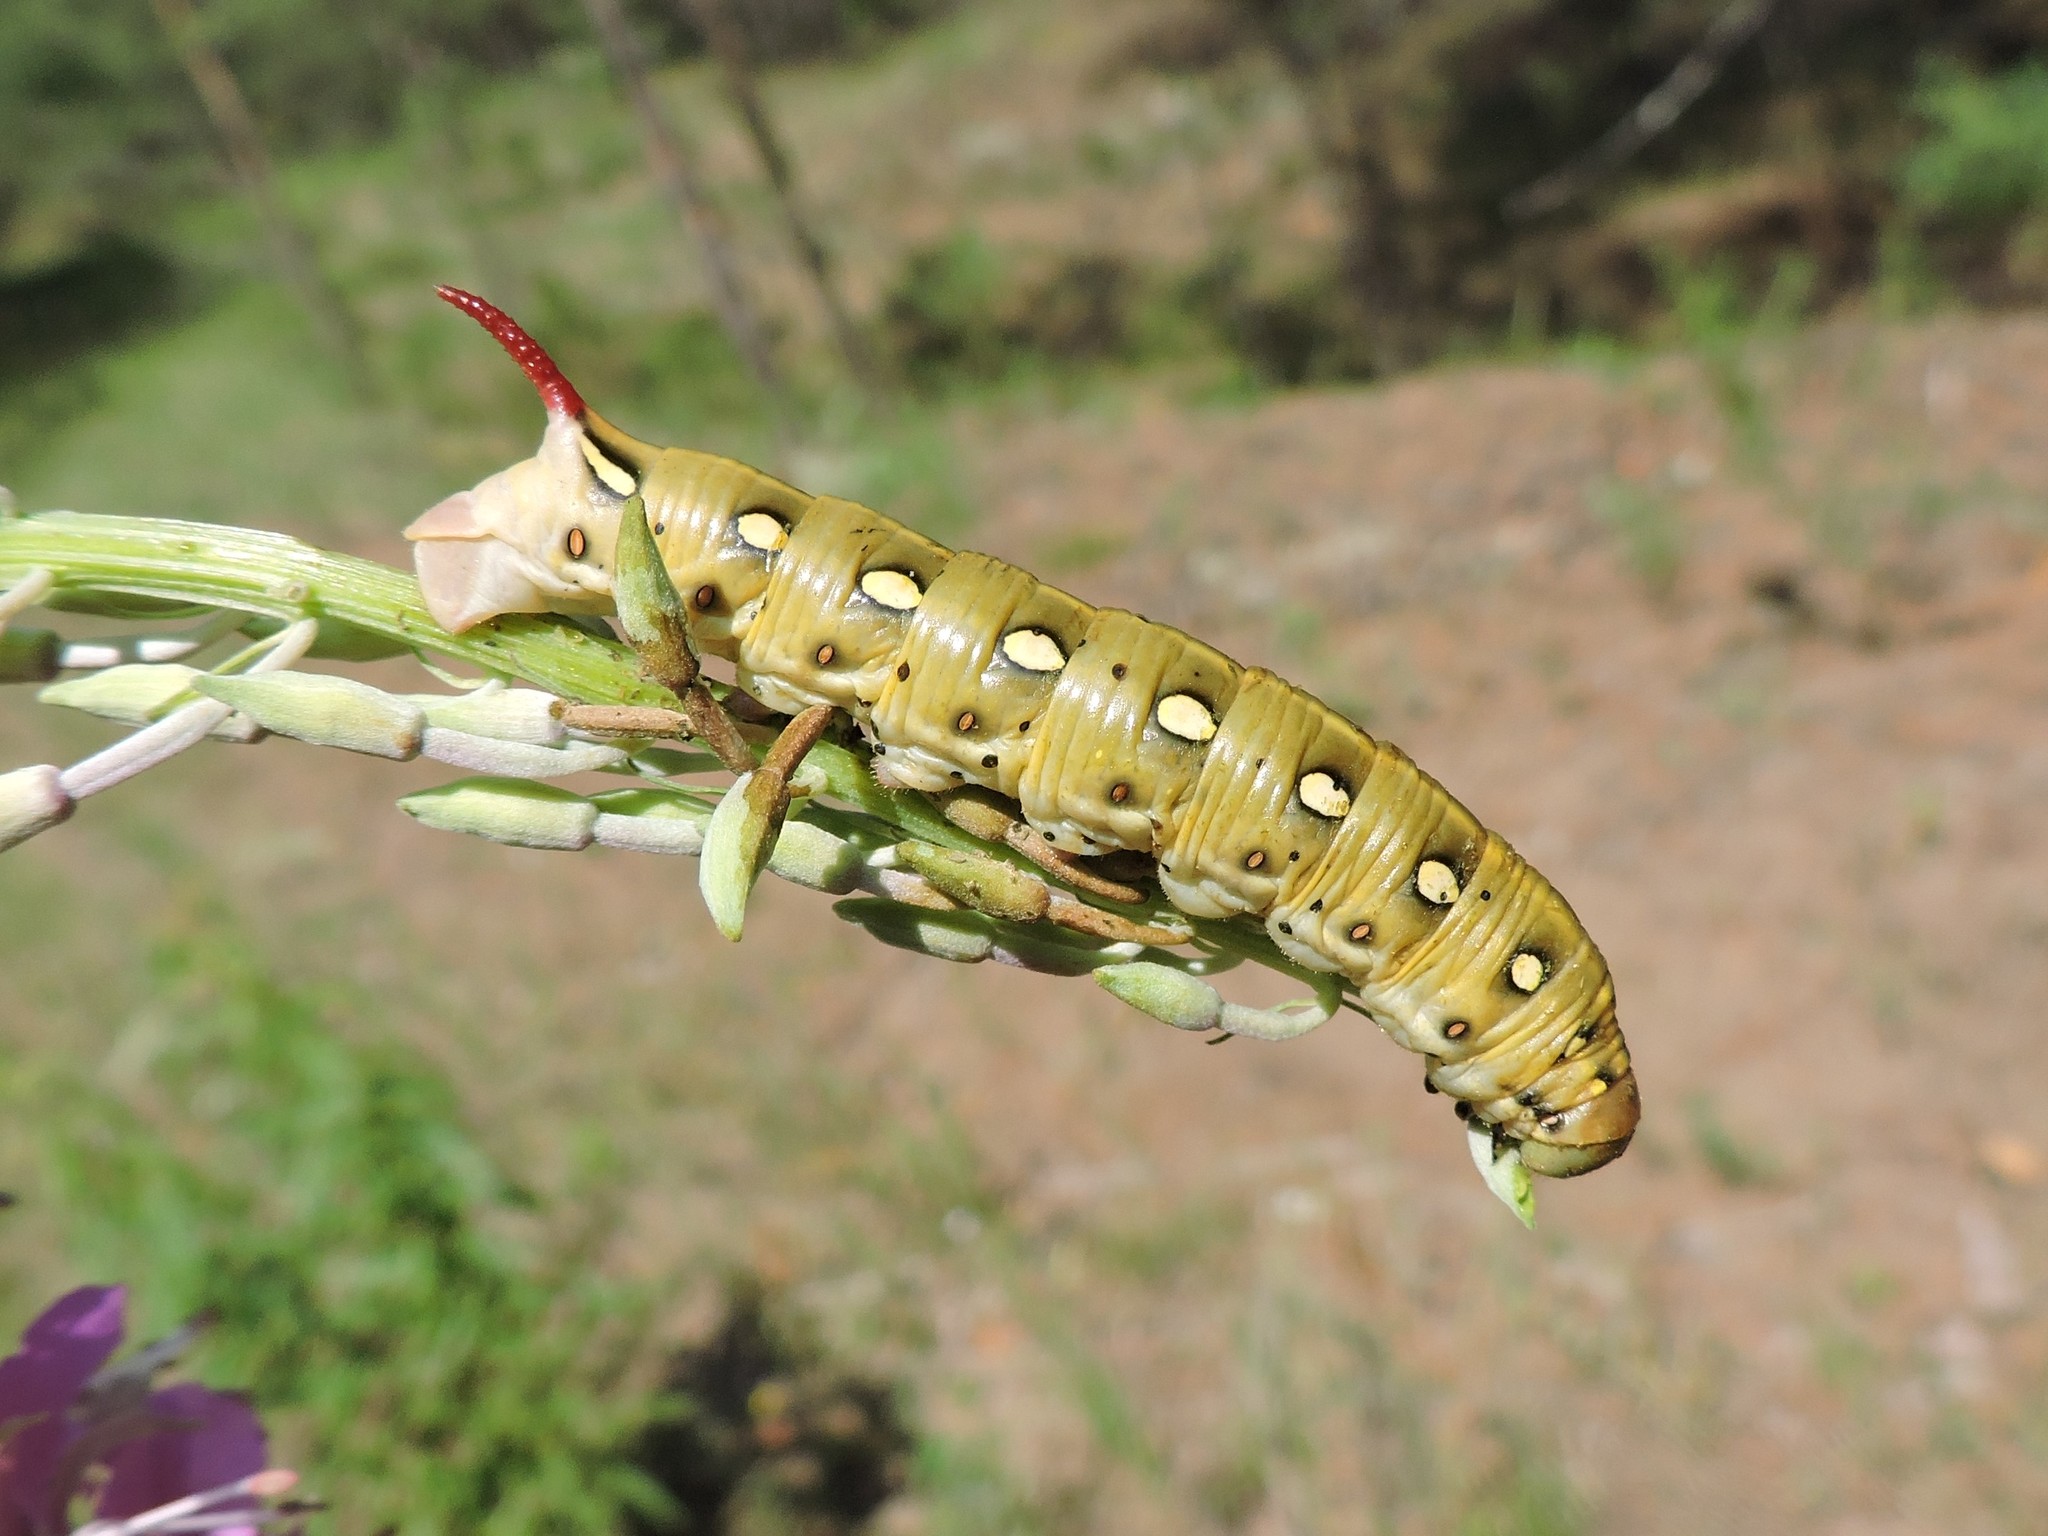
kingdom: Animalia
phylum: Arthropoda
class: Insecta
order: Lepidoptera
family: Sphingidae
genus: Hyles
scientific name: Hyles gallii
